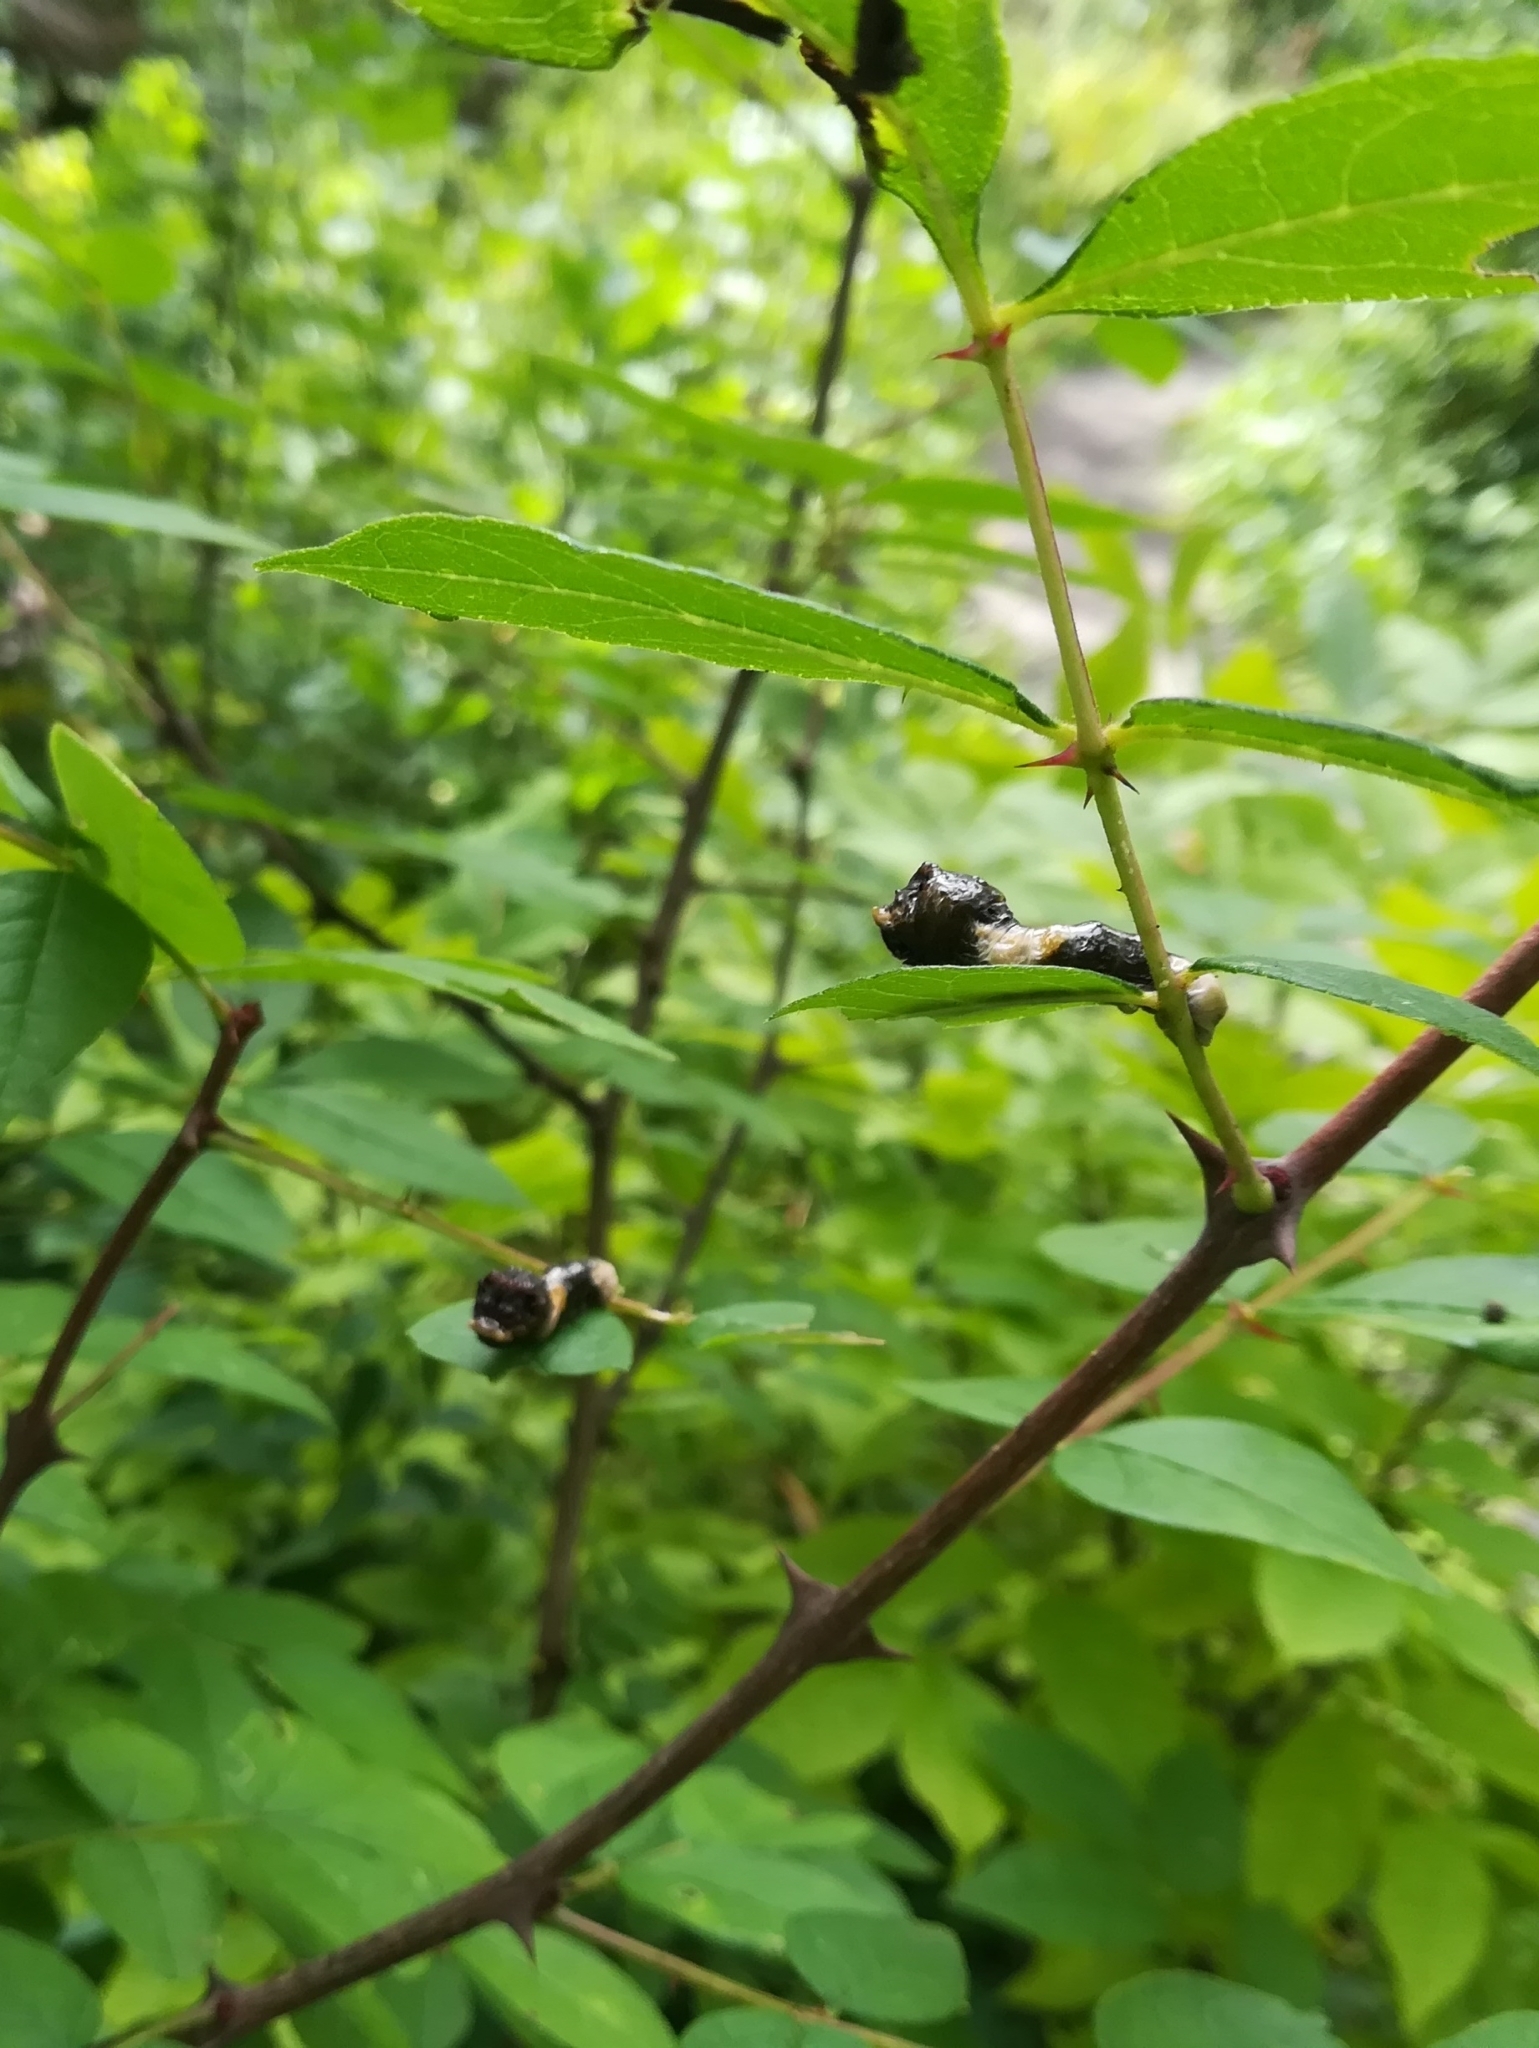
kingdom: Animalia
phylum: Arthropoda
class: Insecta
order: Lepidoptera
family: Papilionidae
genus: Papilio
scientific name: Papilio cresphontes
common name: Giant swallowtail
